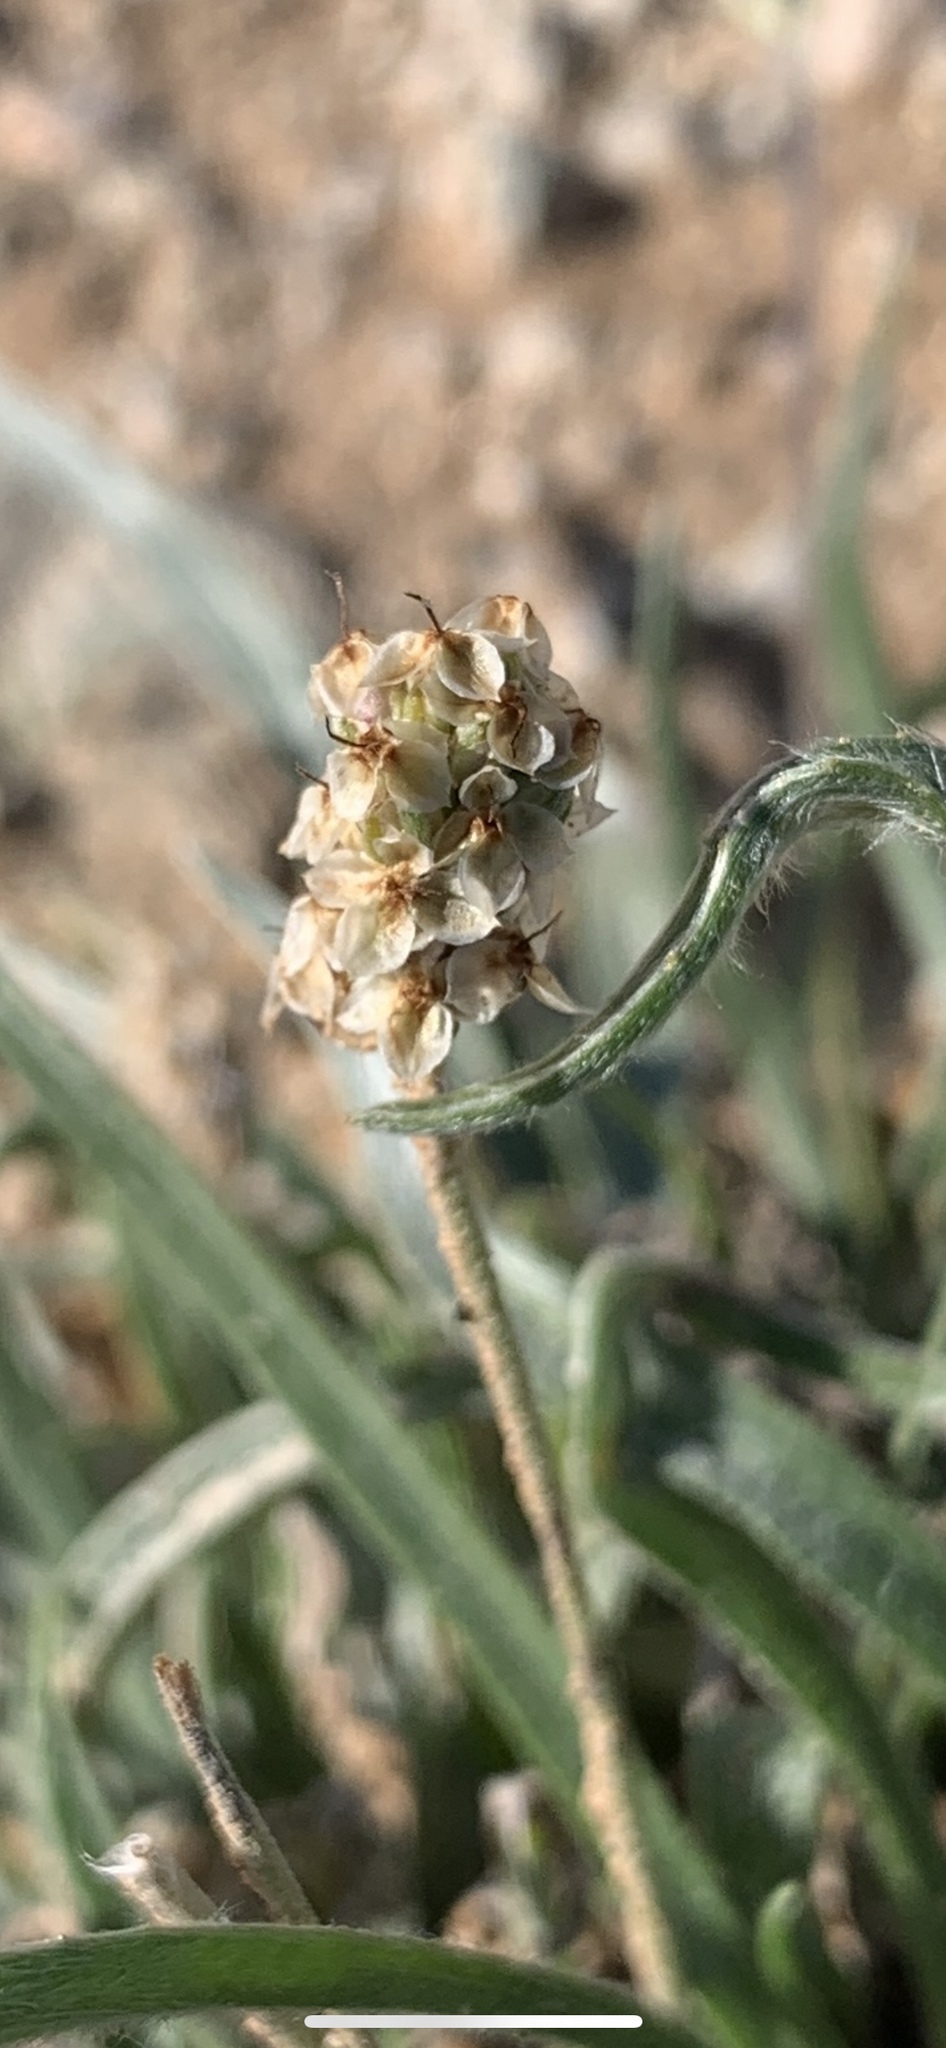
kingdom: Plantae
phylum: Tracheophyta
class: Magnoliopsida
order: Lamiales
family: Plantaginaceae
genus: Plantago
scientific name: Plantago ovata
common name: Blond plantain
